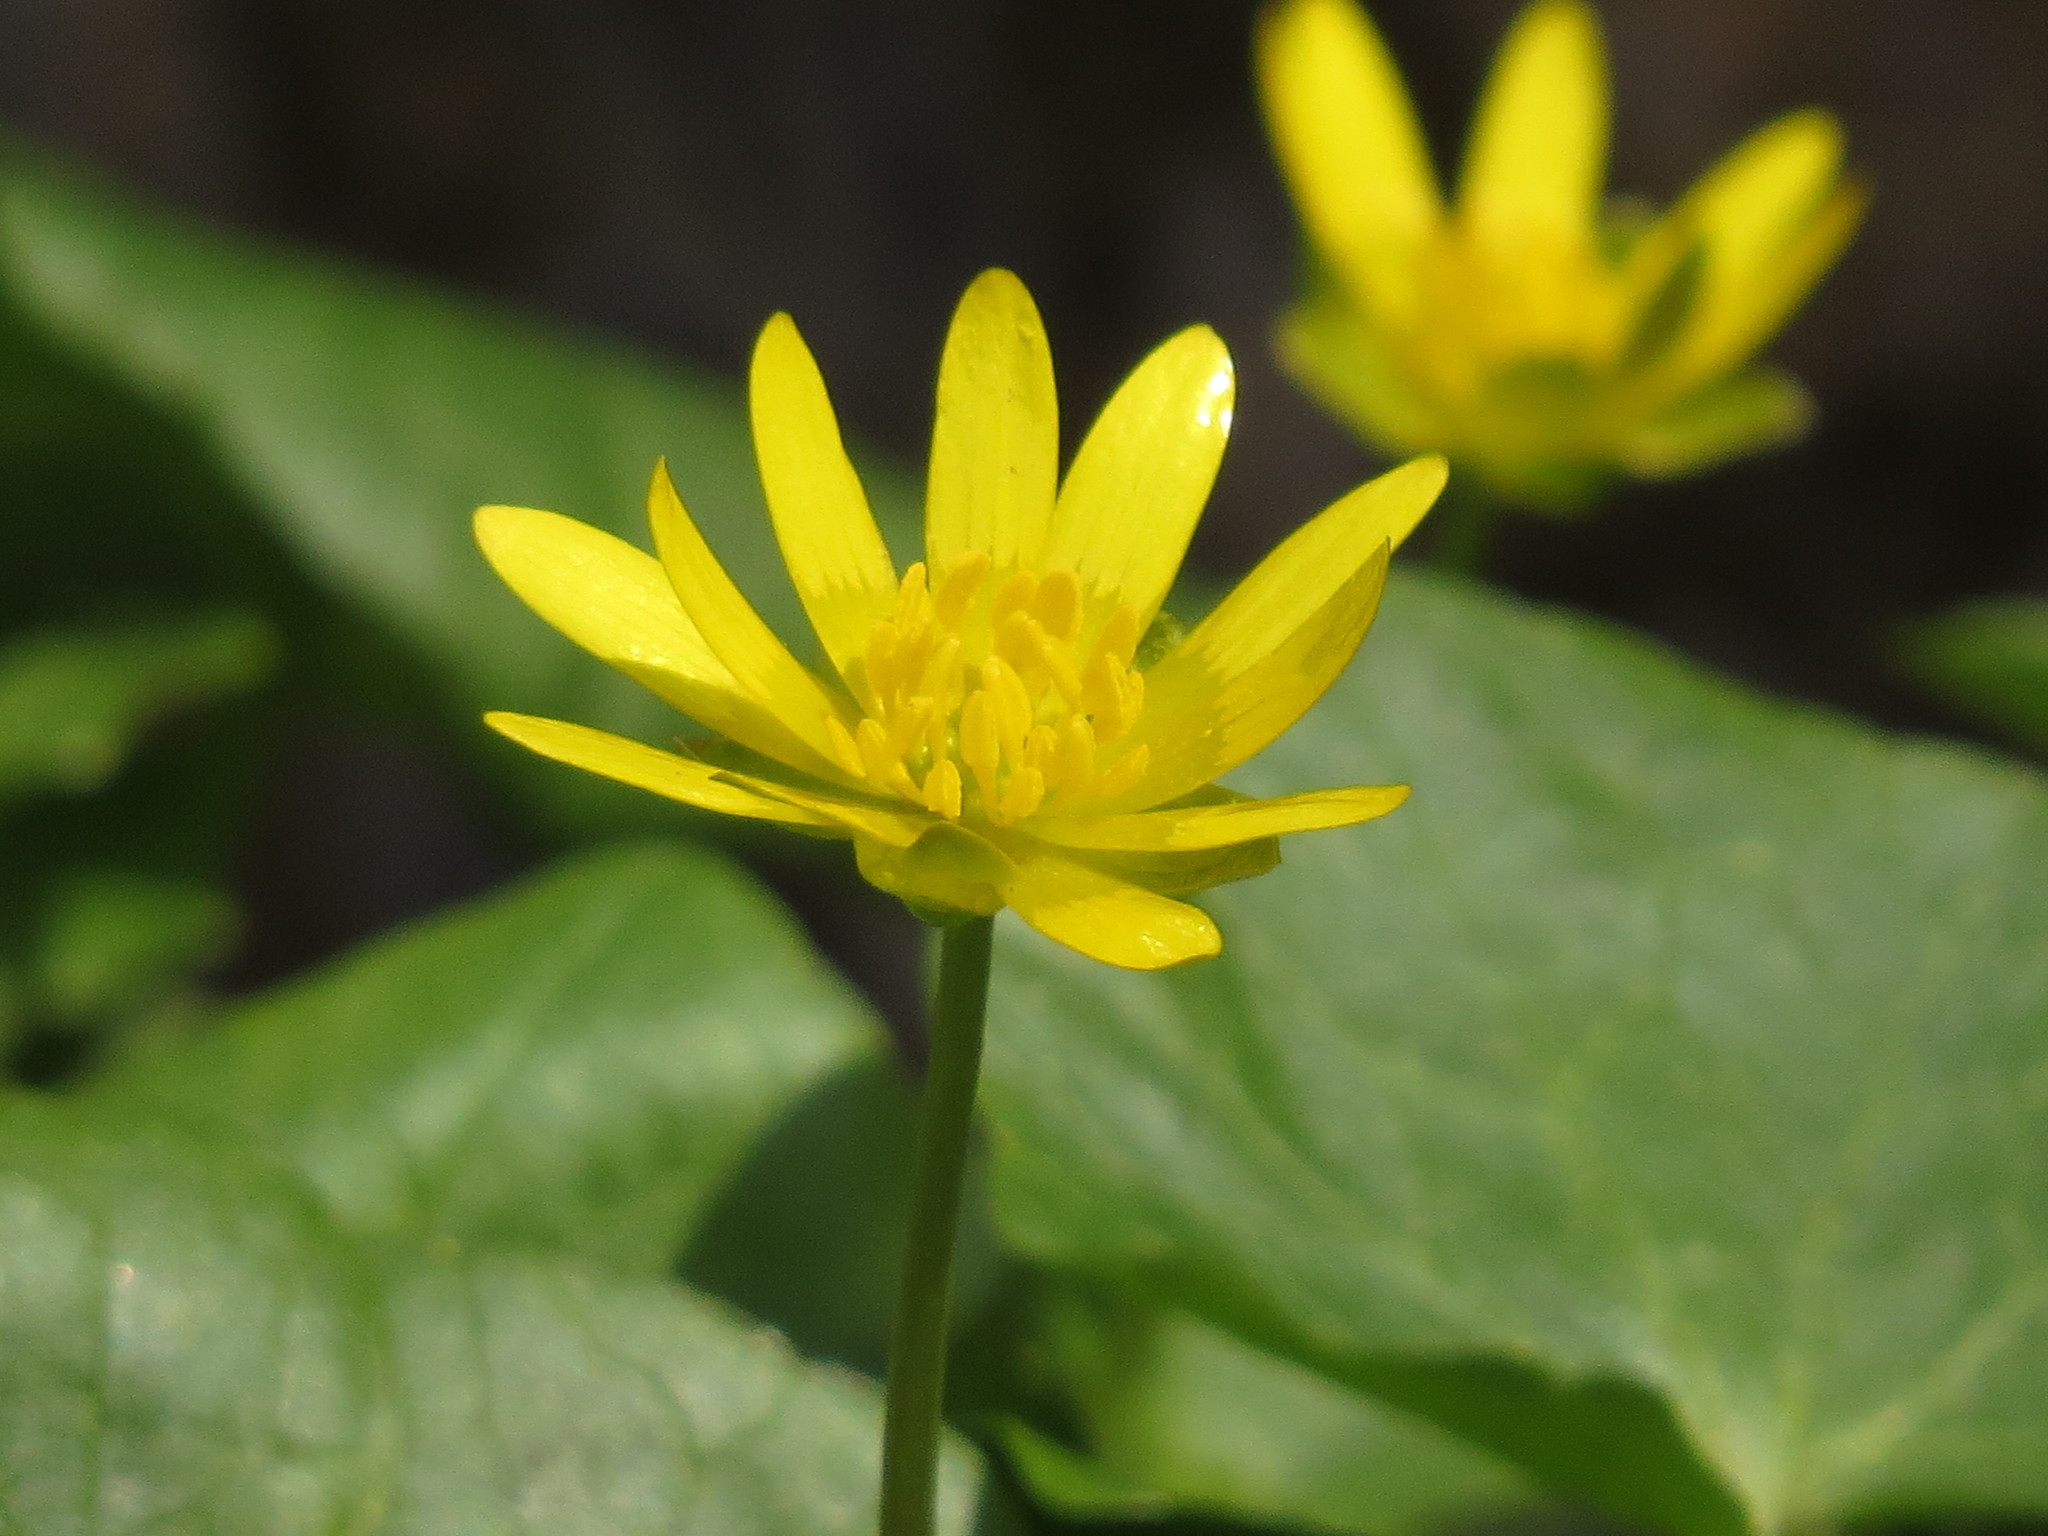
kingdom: Plantae
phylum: Tracheophyta
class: Magnoliopsida
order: Ranunculales
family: Ranunculaceae
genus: Ficaria
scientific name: Ficaria verna
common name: Lesser celandine
